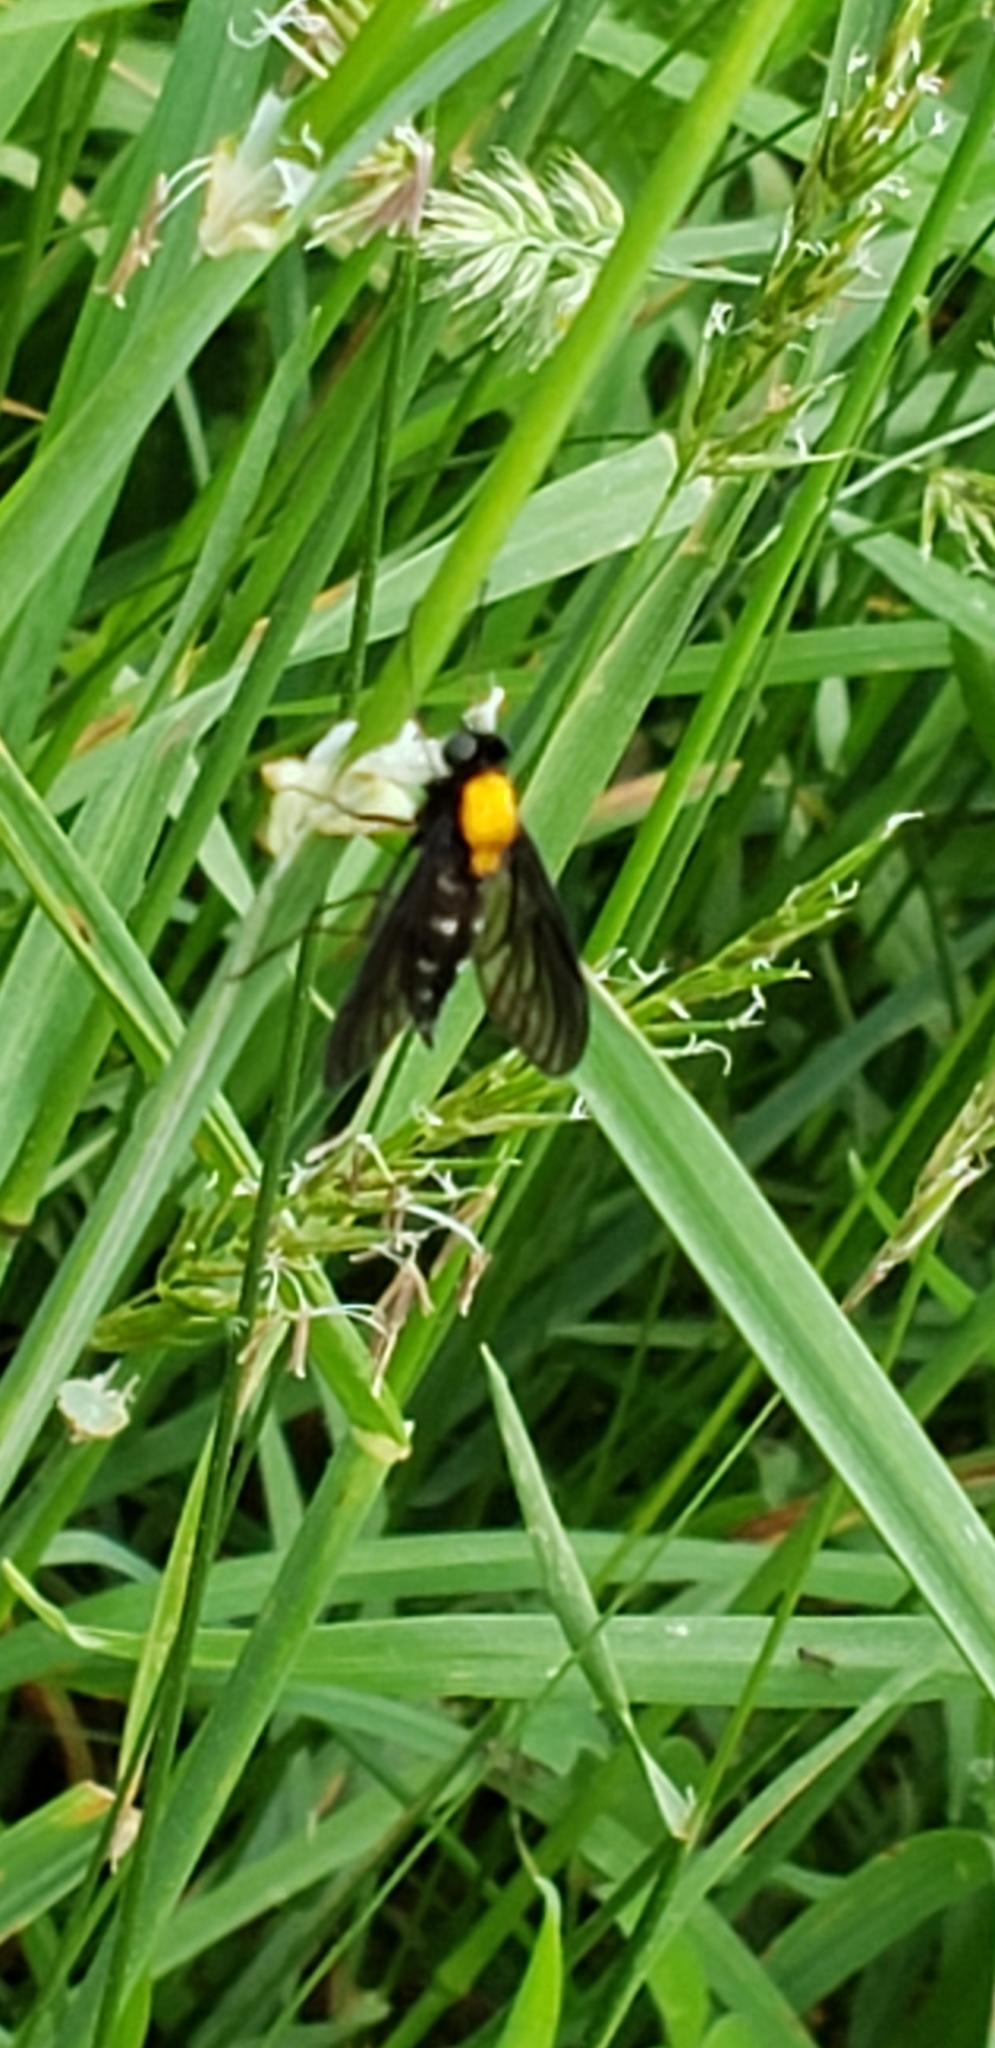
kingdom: Animalia
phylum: Arthropoda
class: Insecta
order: Diptera
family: Rhagionidae
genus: Chrysopilus
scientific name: Chrysopilus thoracicus
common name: Golden-backed snipe fly
